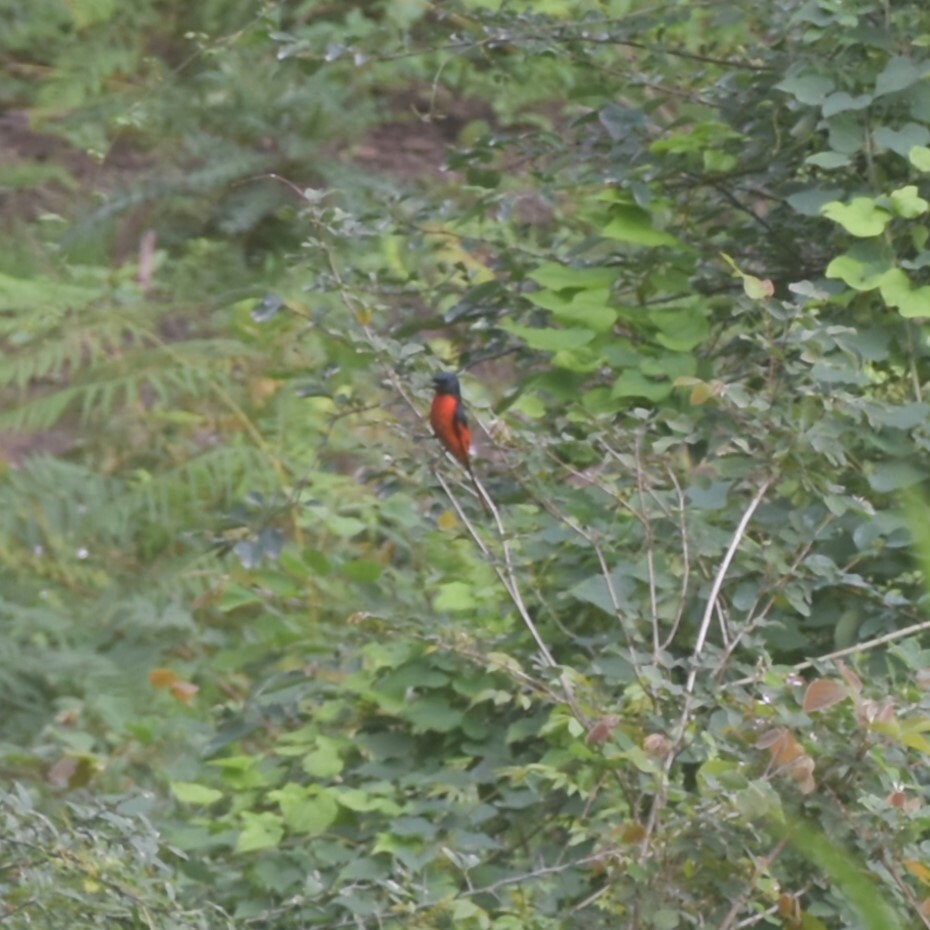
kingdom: Animalia
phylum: Chordata
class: Aves
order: Passeriformes
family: Campephagidae
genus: Pericrocotus
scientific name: Pericrocotus ethologus
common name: Long-tailed minivet
